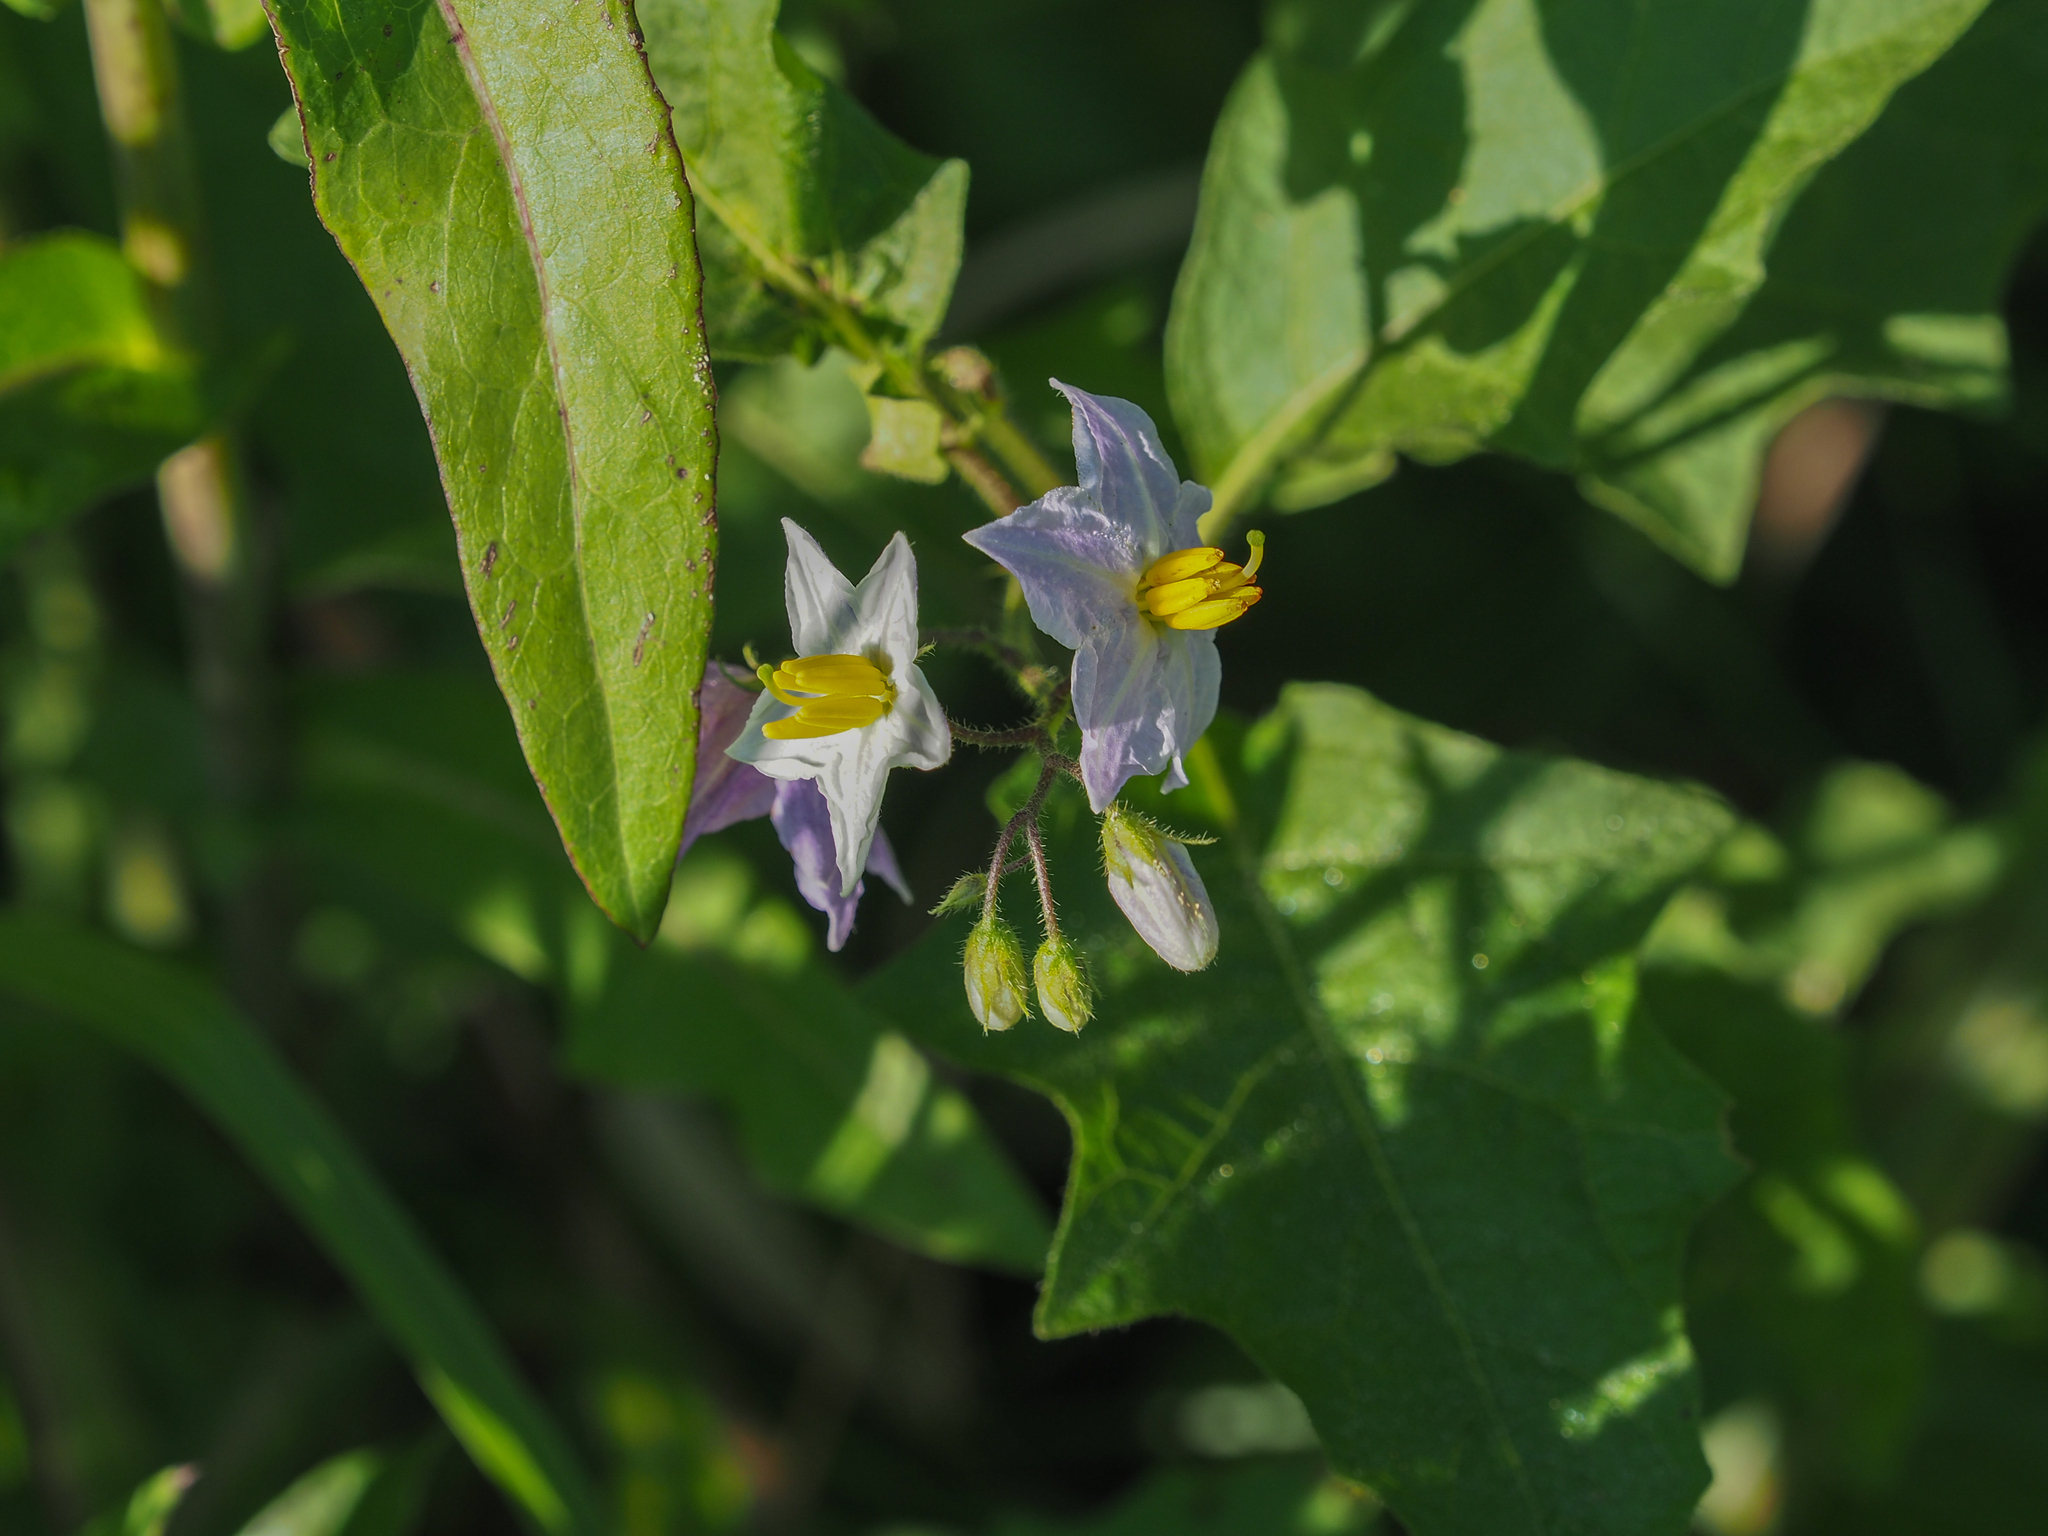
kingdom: Plantae
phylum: Tracheophyta
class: Magnoliopsida
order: Solanales
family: Solanaceae
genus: Solanum
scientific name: Solanum carolinense
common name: Horse-nettle
